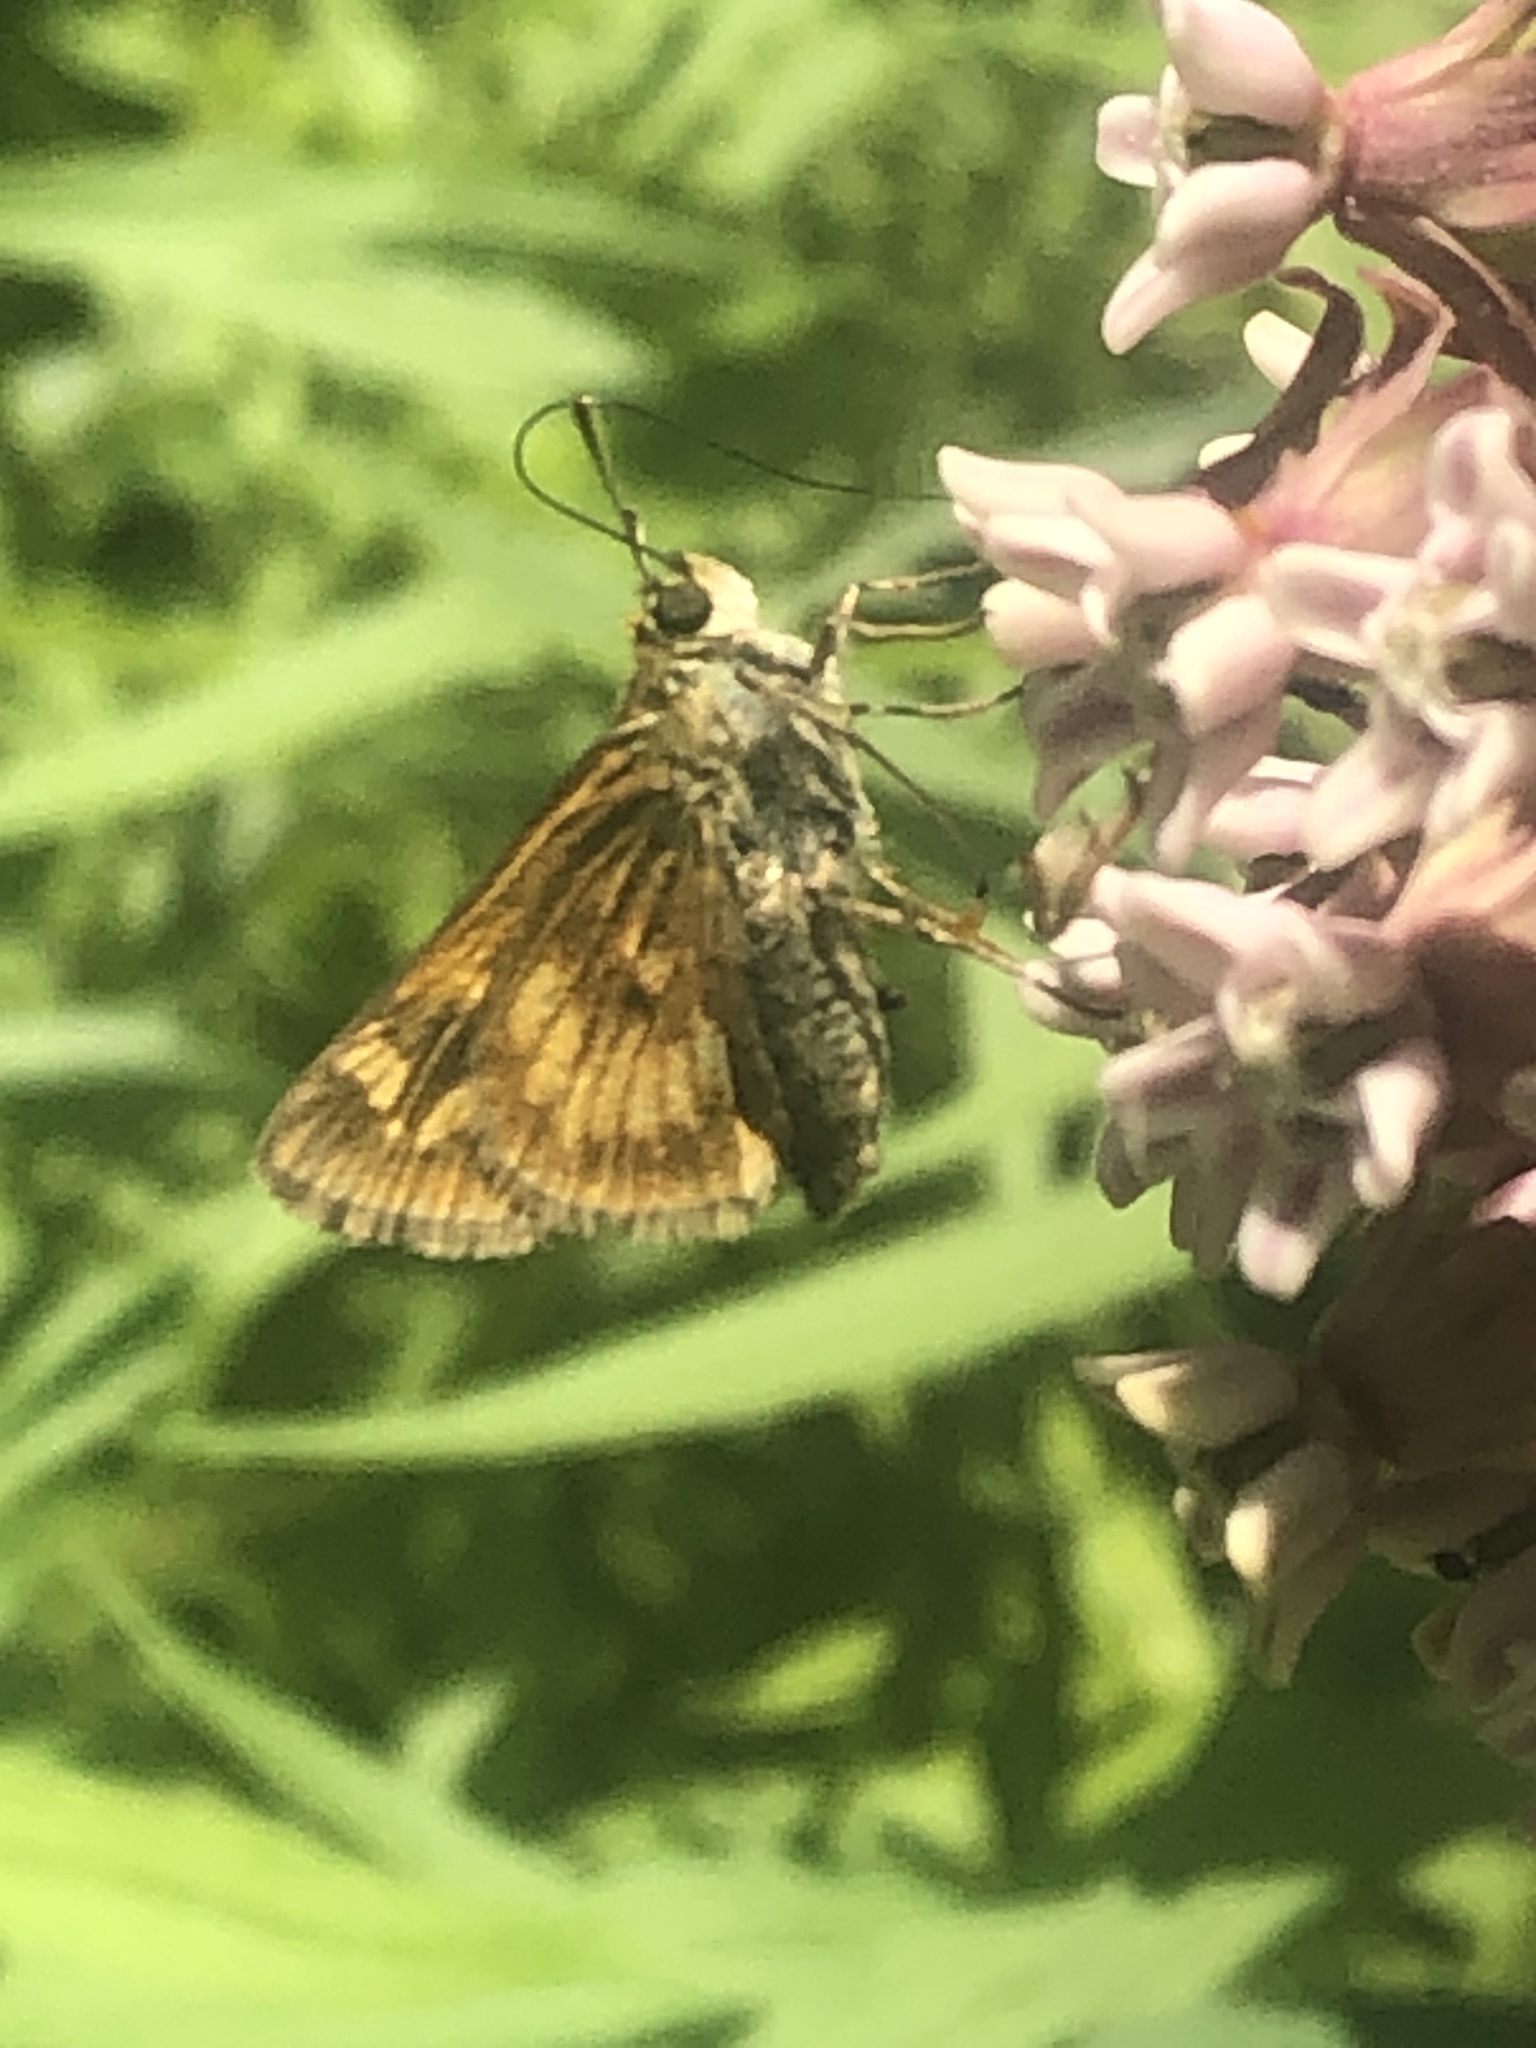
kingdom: Animalia
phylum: Arthropoda
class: Insecta
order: Lepidoptera
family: Hesperiidae
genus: Polites
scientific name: Polites mystic
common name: Long dash
